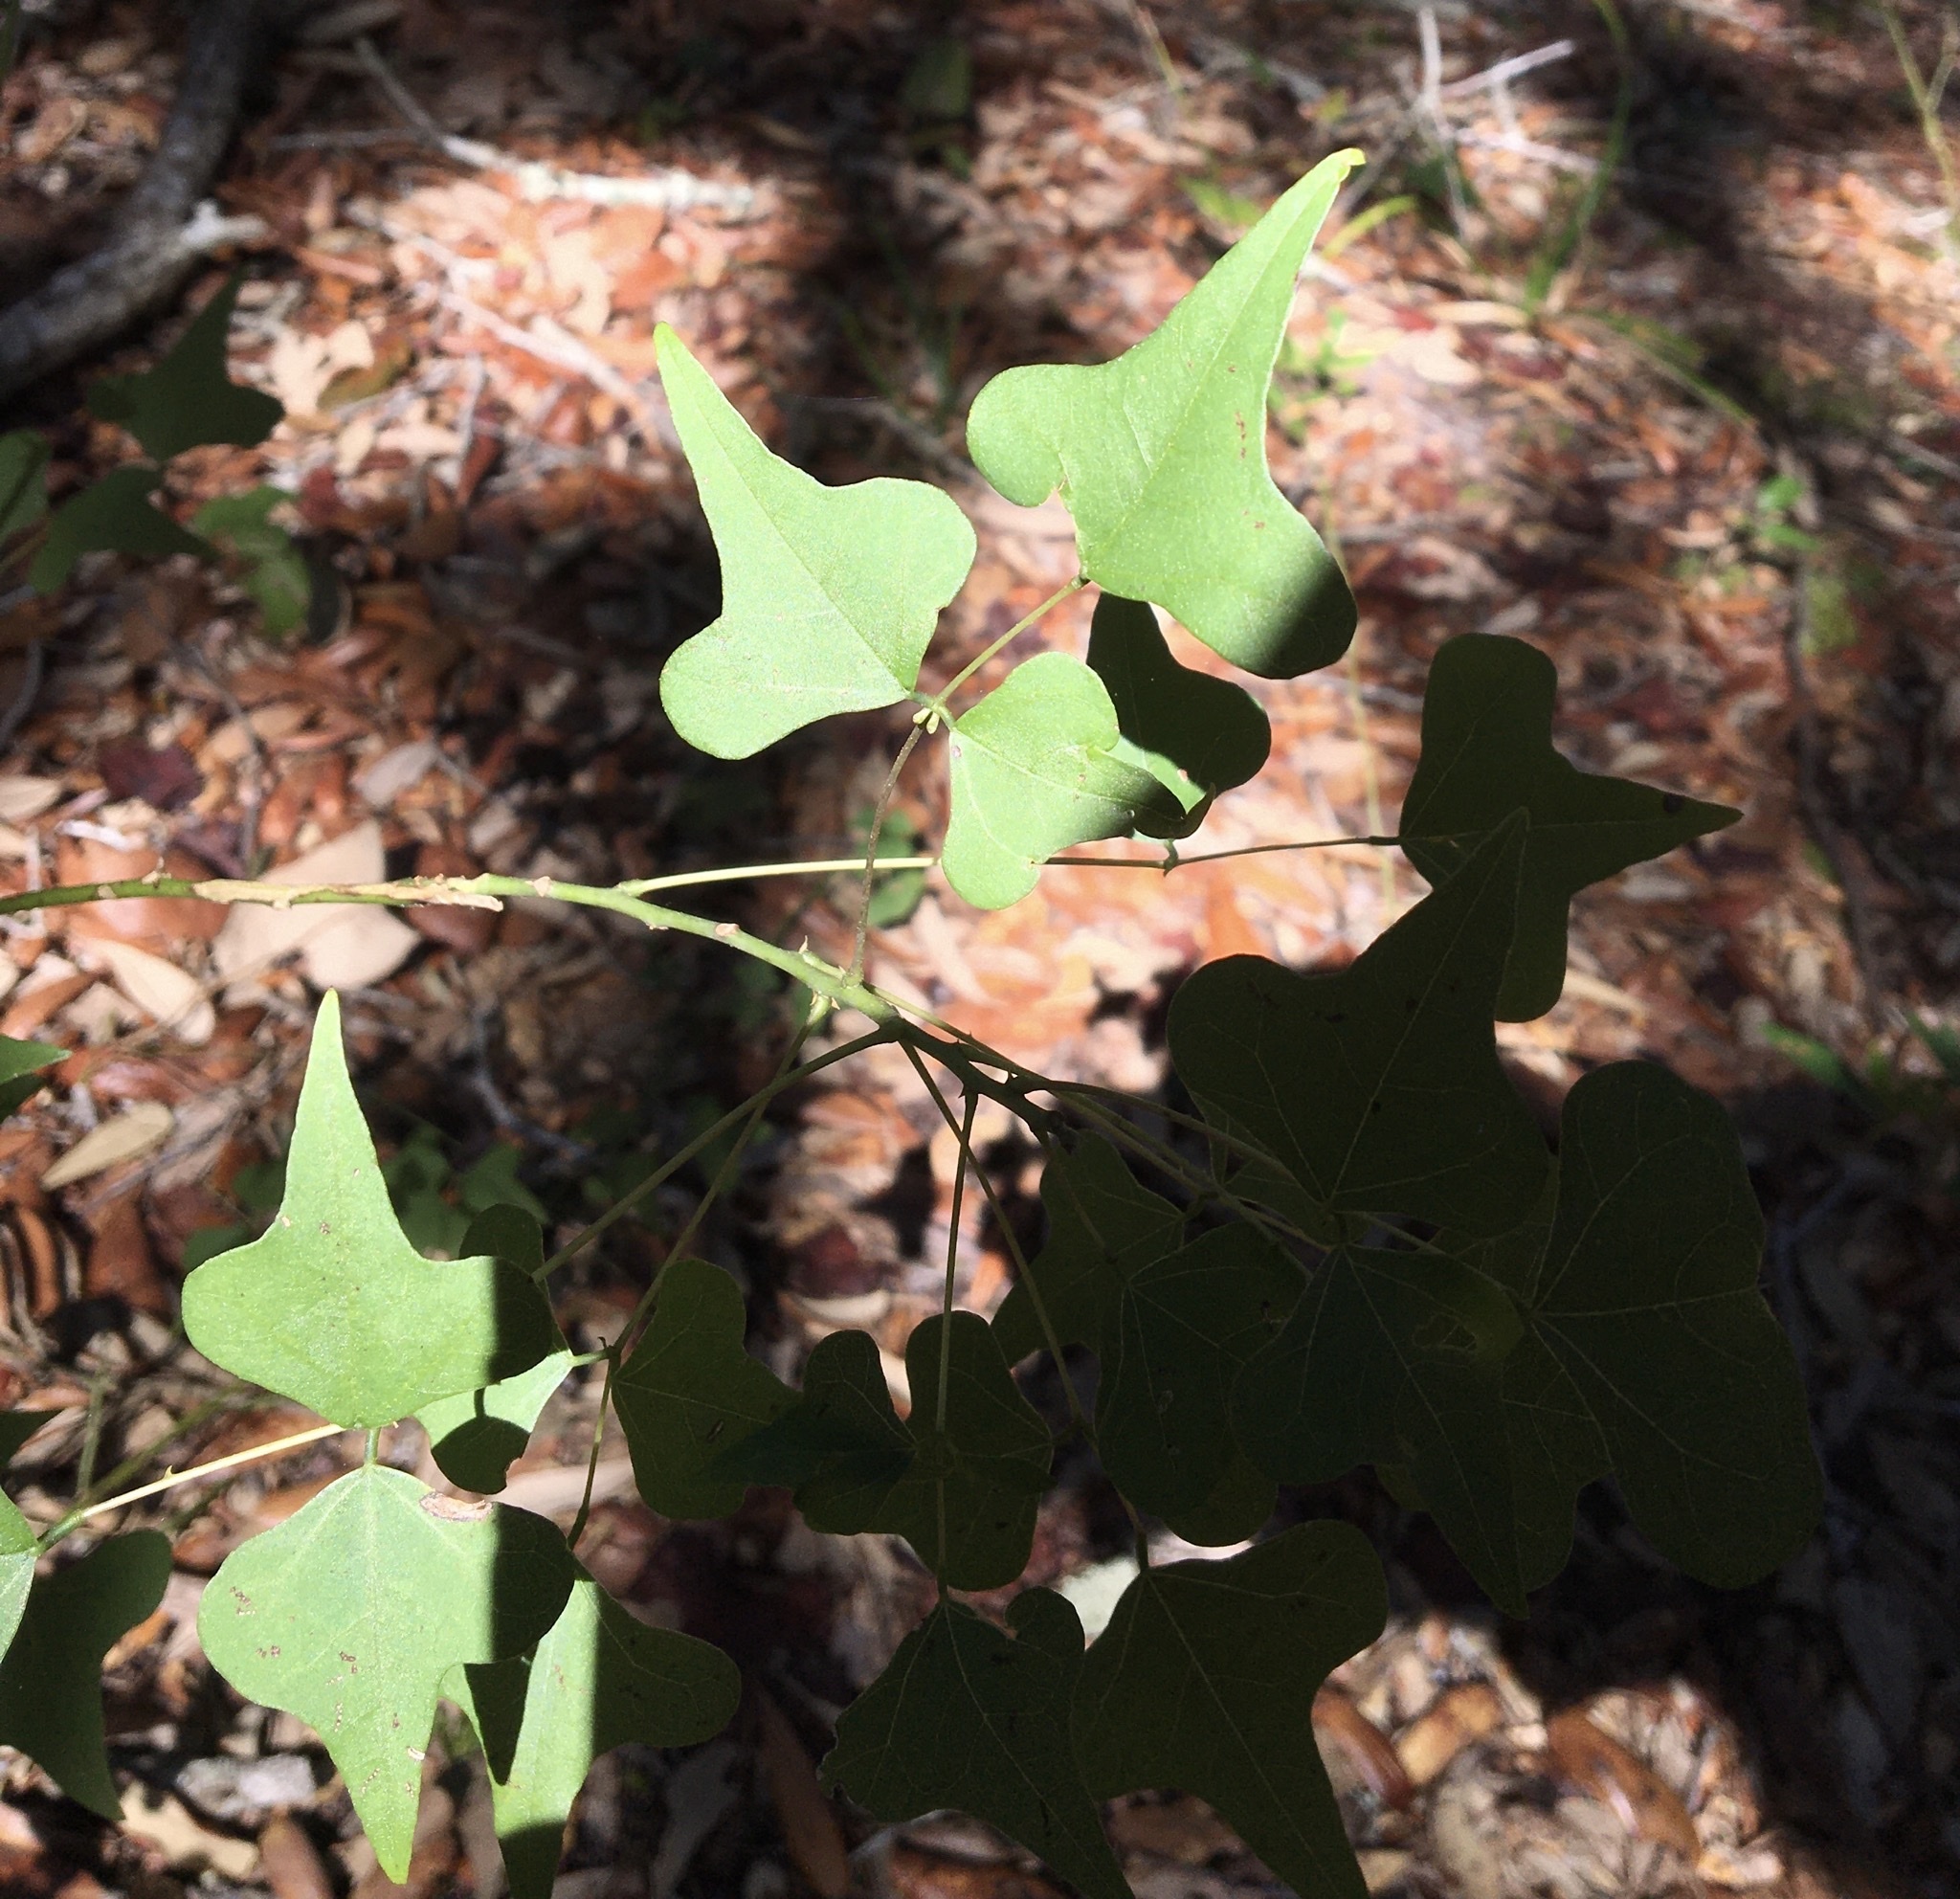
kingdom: Plantae
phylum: Tracheophyta
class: Magnoliopsida
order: Fabales
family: Fabaceae
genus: Erythrina
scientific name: Erythrina herbacea
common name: Coral-bean
